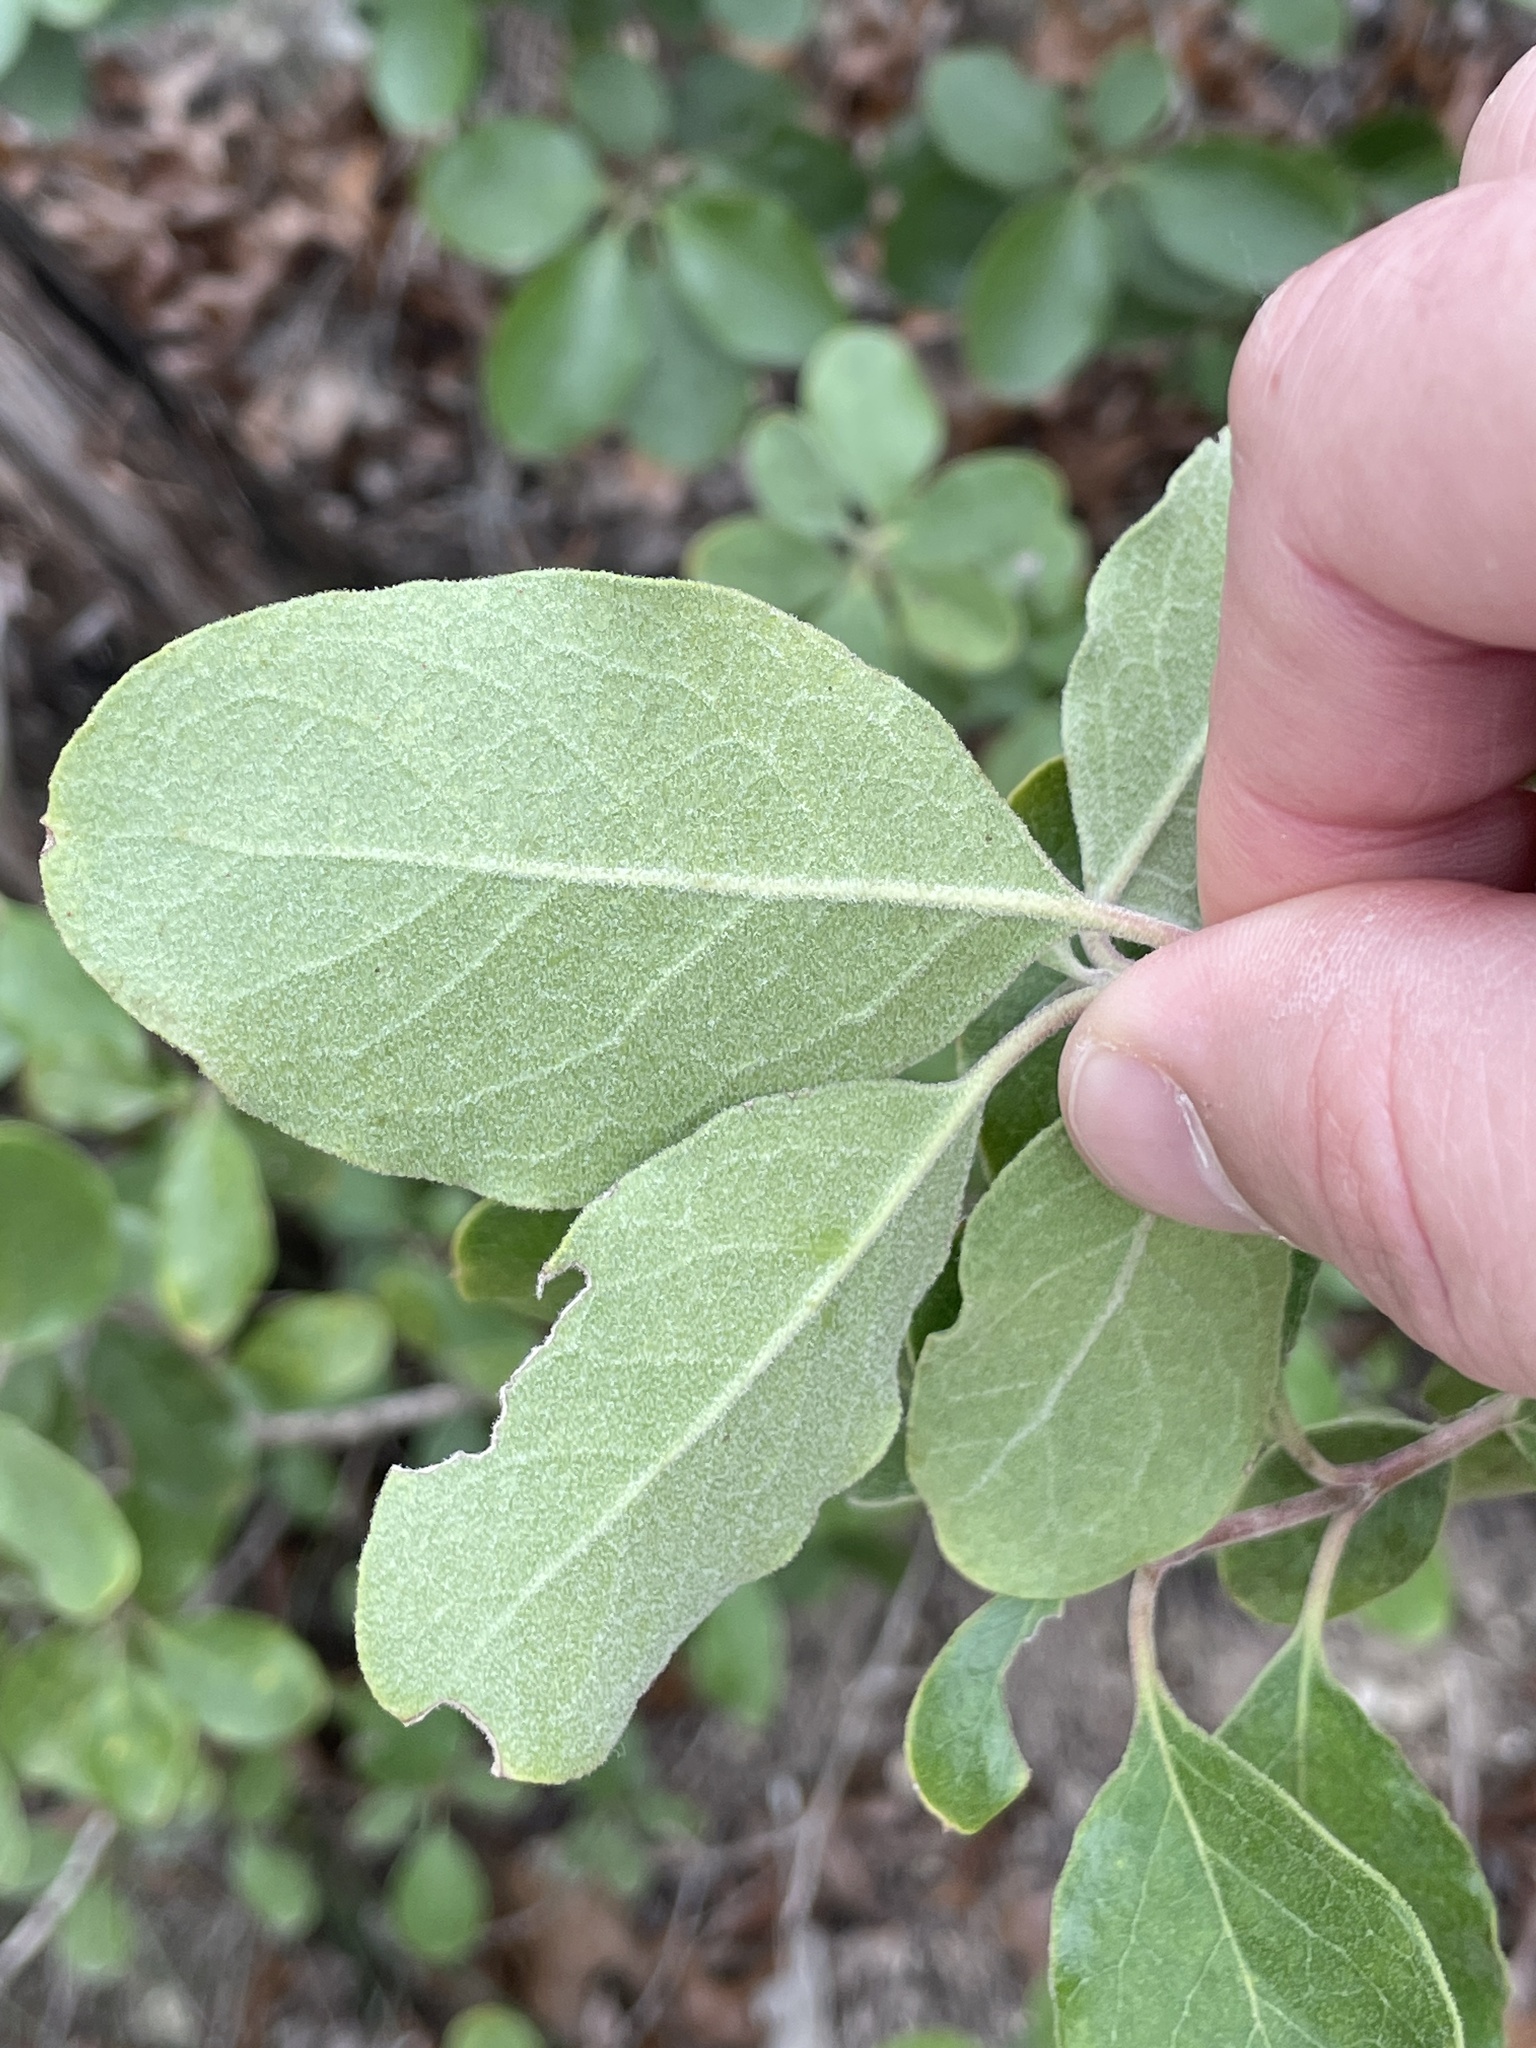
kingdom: Plantae
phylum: Tracheophyta
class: Magnoliopsida
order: Garryales
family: Garryaceae
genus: Garrya
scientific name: Garrya lindheimeri
